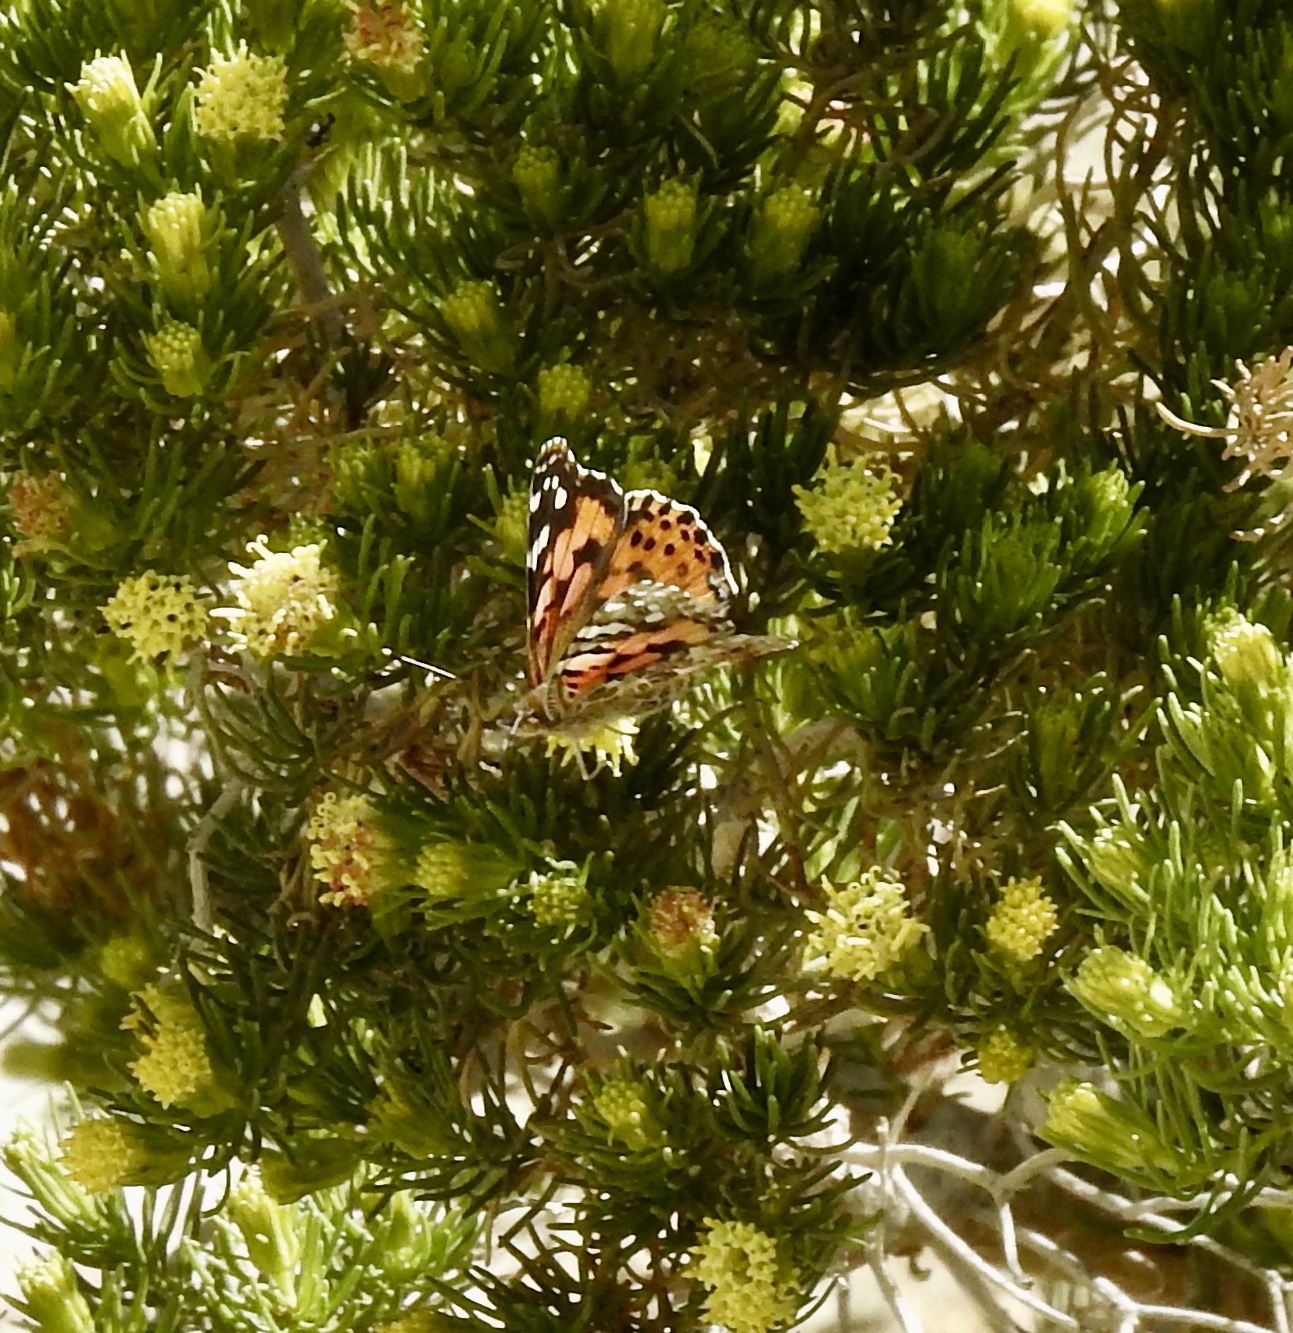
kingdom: Animalia
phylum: Arthropoda
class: Insecta
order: Lepidoptera
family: Nymphalidae
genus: Vanessa
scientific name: Vanessa cardui
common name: Painted lady
